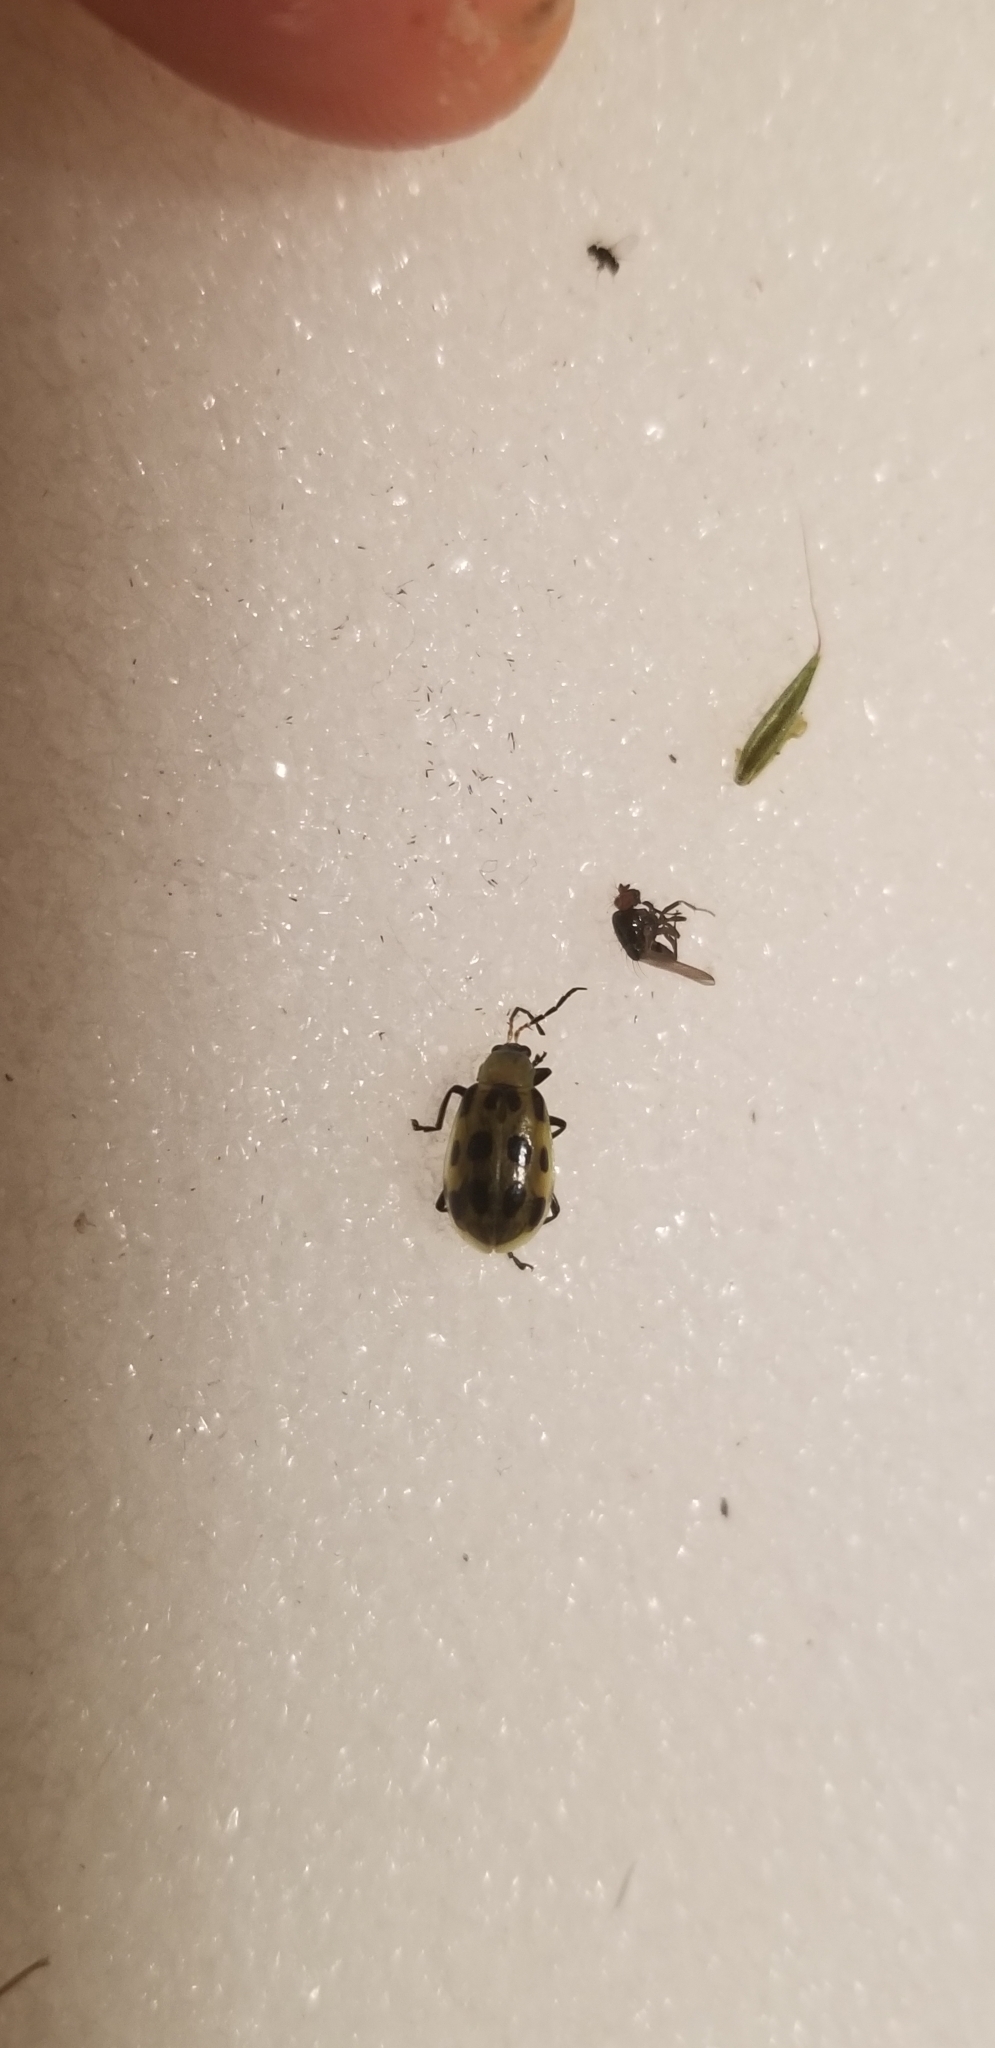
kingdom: Animalia
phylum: Arthropoda
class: Insecta
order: Coleoptera
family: Chrysomelidae
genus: Diabrotica
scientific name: Diabrotica undecimpunctata
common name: Spotted cucumber beetle
